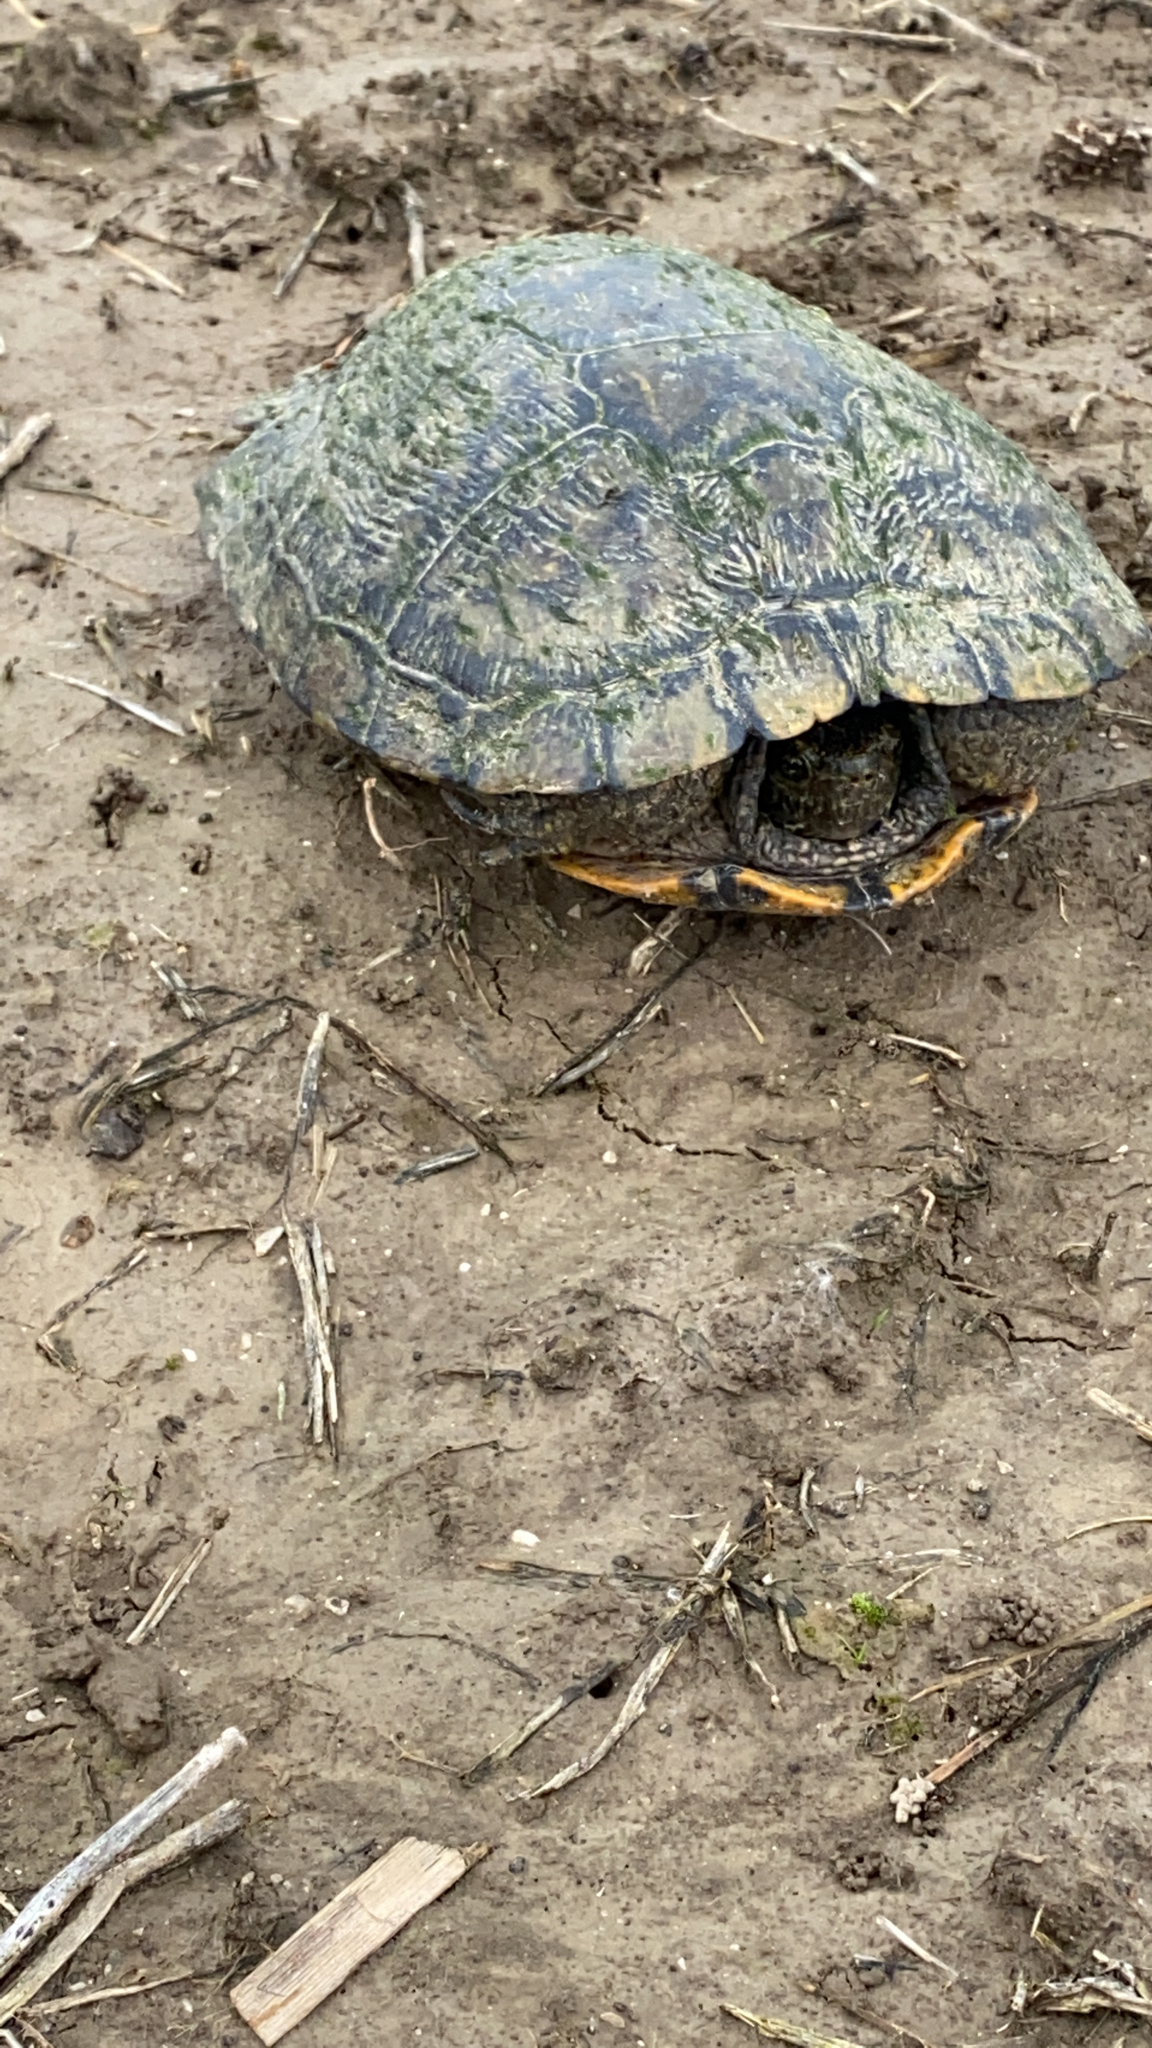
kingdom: Animalia
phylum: Chordata
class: Testudines
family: Emydidae
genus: Trachemys
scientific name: Trachemys scripta
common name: Slider
